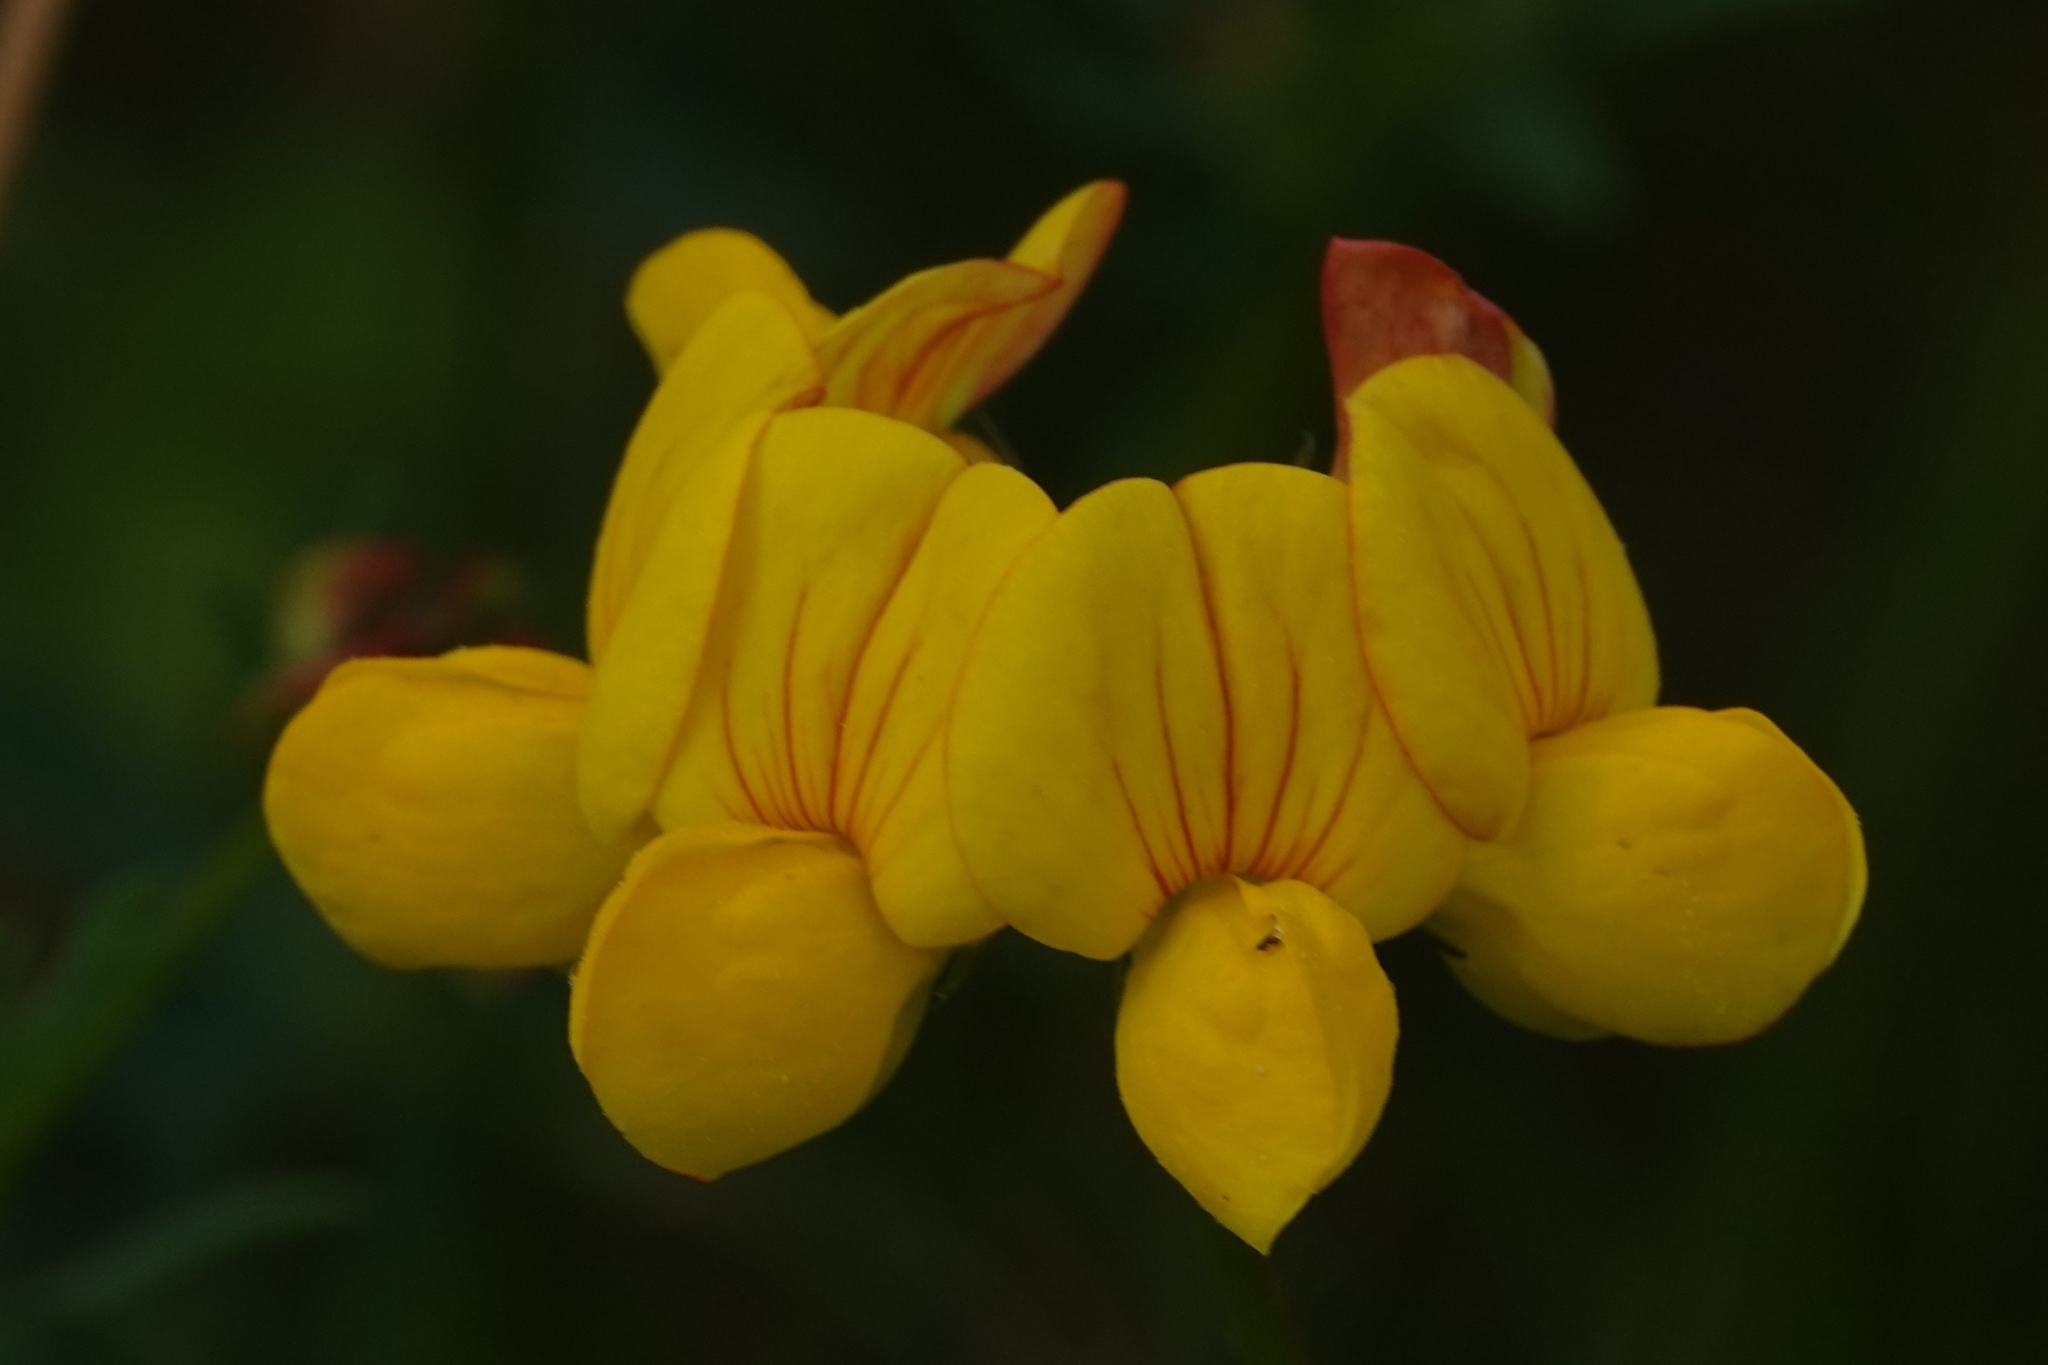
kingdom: Plantae
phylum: Tracheophyta
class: Magnoliopsida
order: Fabales
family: Fabaceae
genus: Lotus
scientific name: Lotus corniculatus
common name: Common bird's-foot-trefoil
